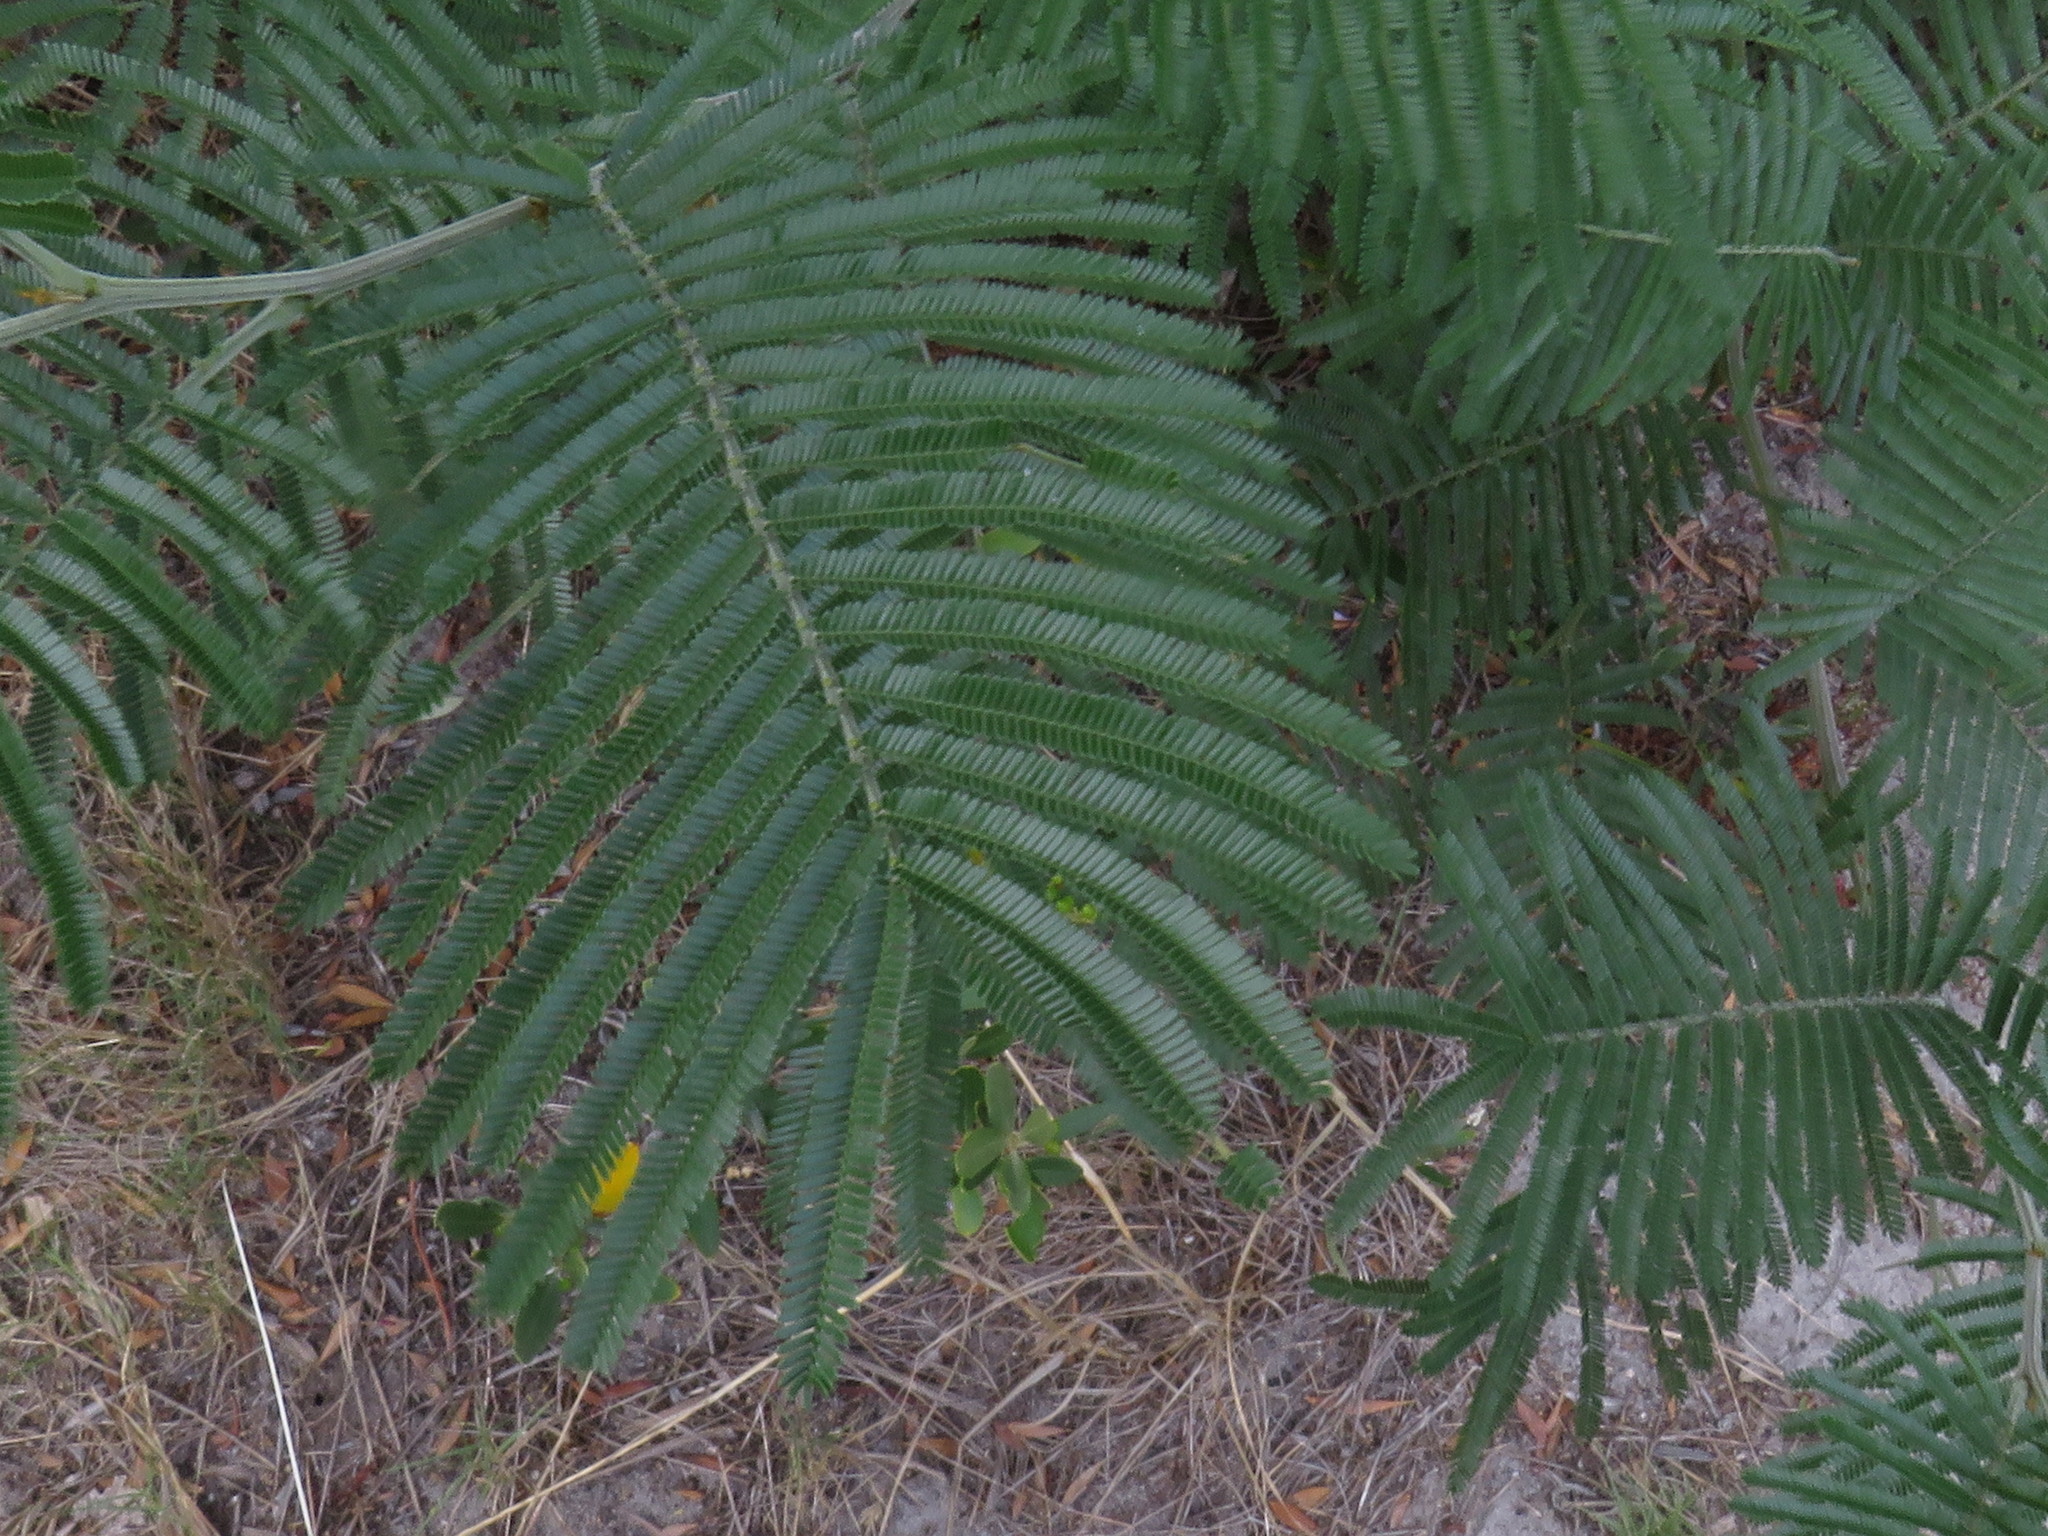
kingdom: Plantae
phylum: Tracheophyta
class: Magnoliopsida
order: Fabales
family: Fabaceae
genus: Acacia
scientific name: Acacia mearnsii
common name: Black wattle
